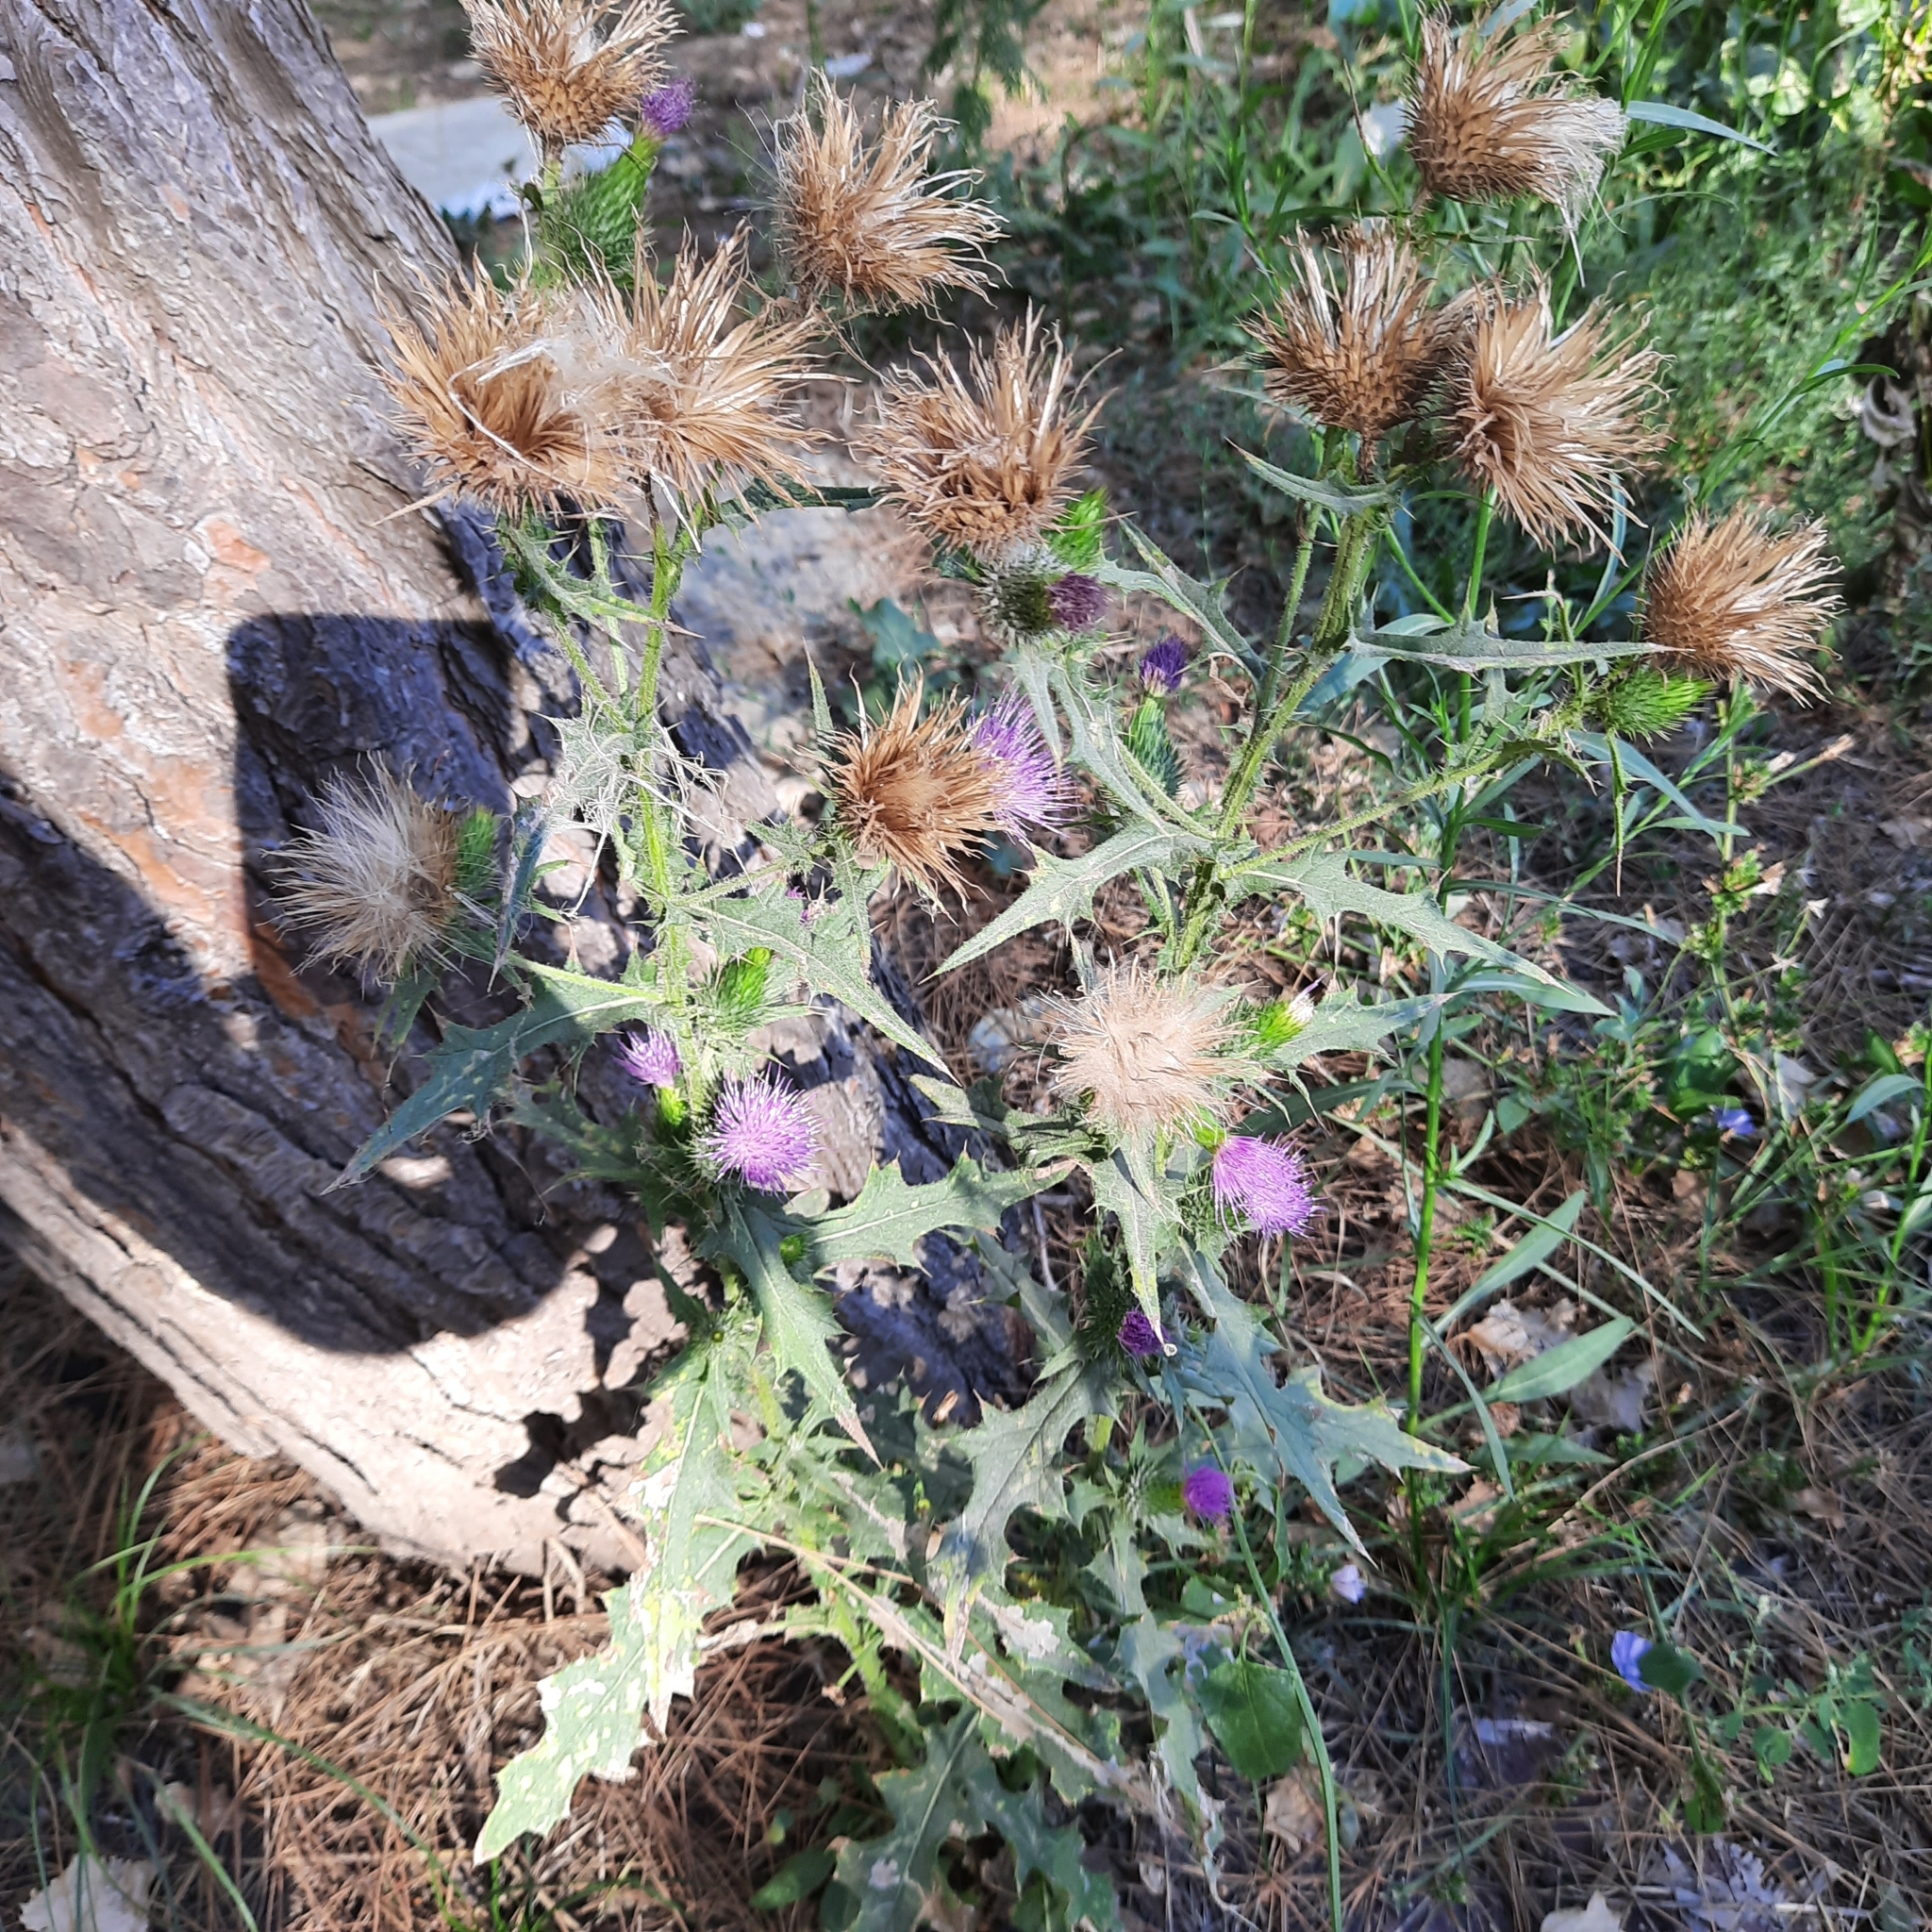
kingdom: Plantae
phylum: Tracheophyta
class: Magnoliopsida
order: Asterales
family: Asteraceae
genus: Cirsium
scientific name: Cirsium vulgare
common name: Bull thistle
